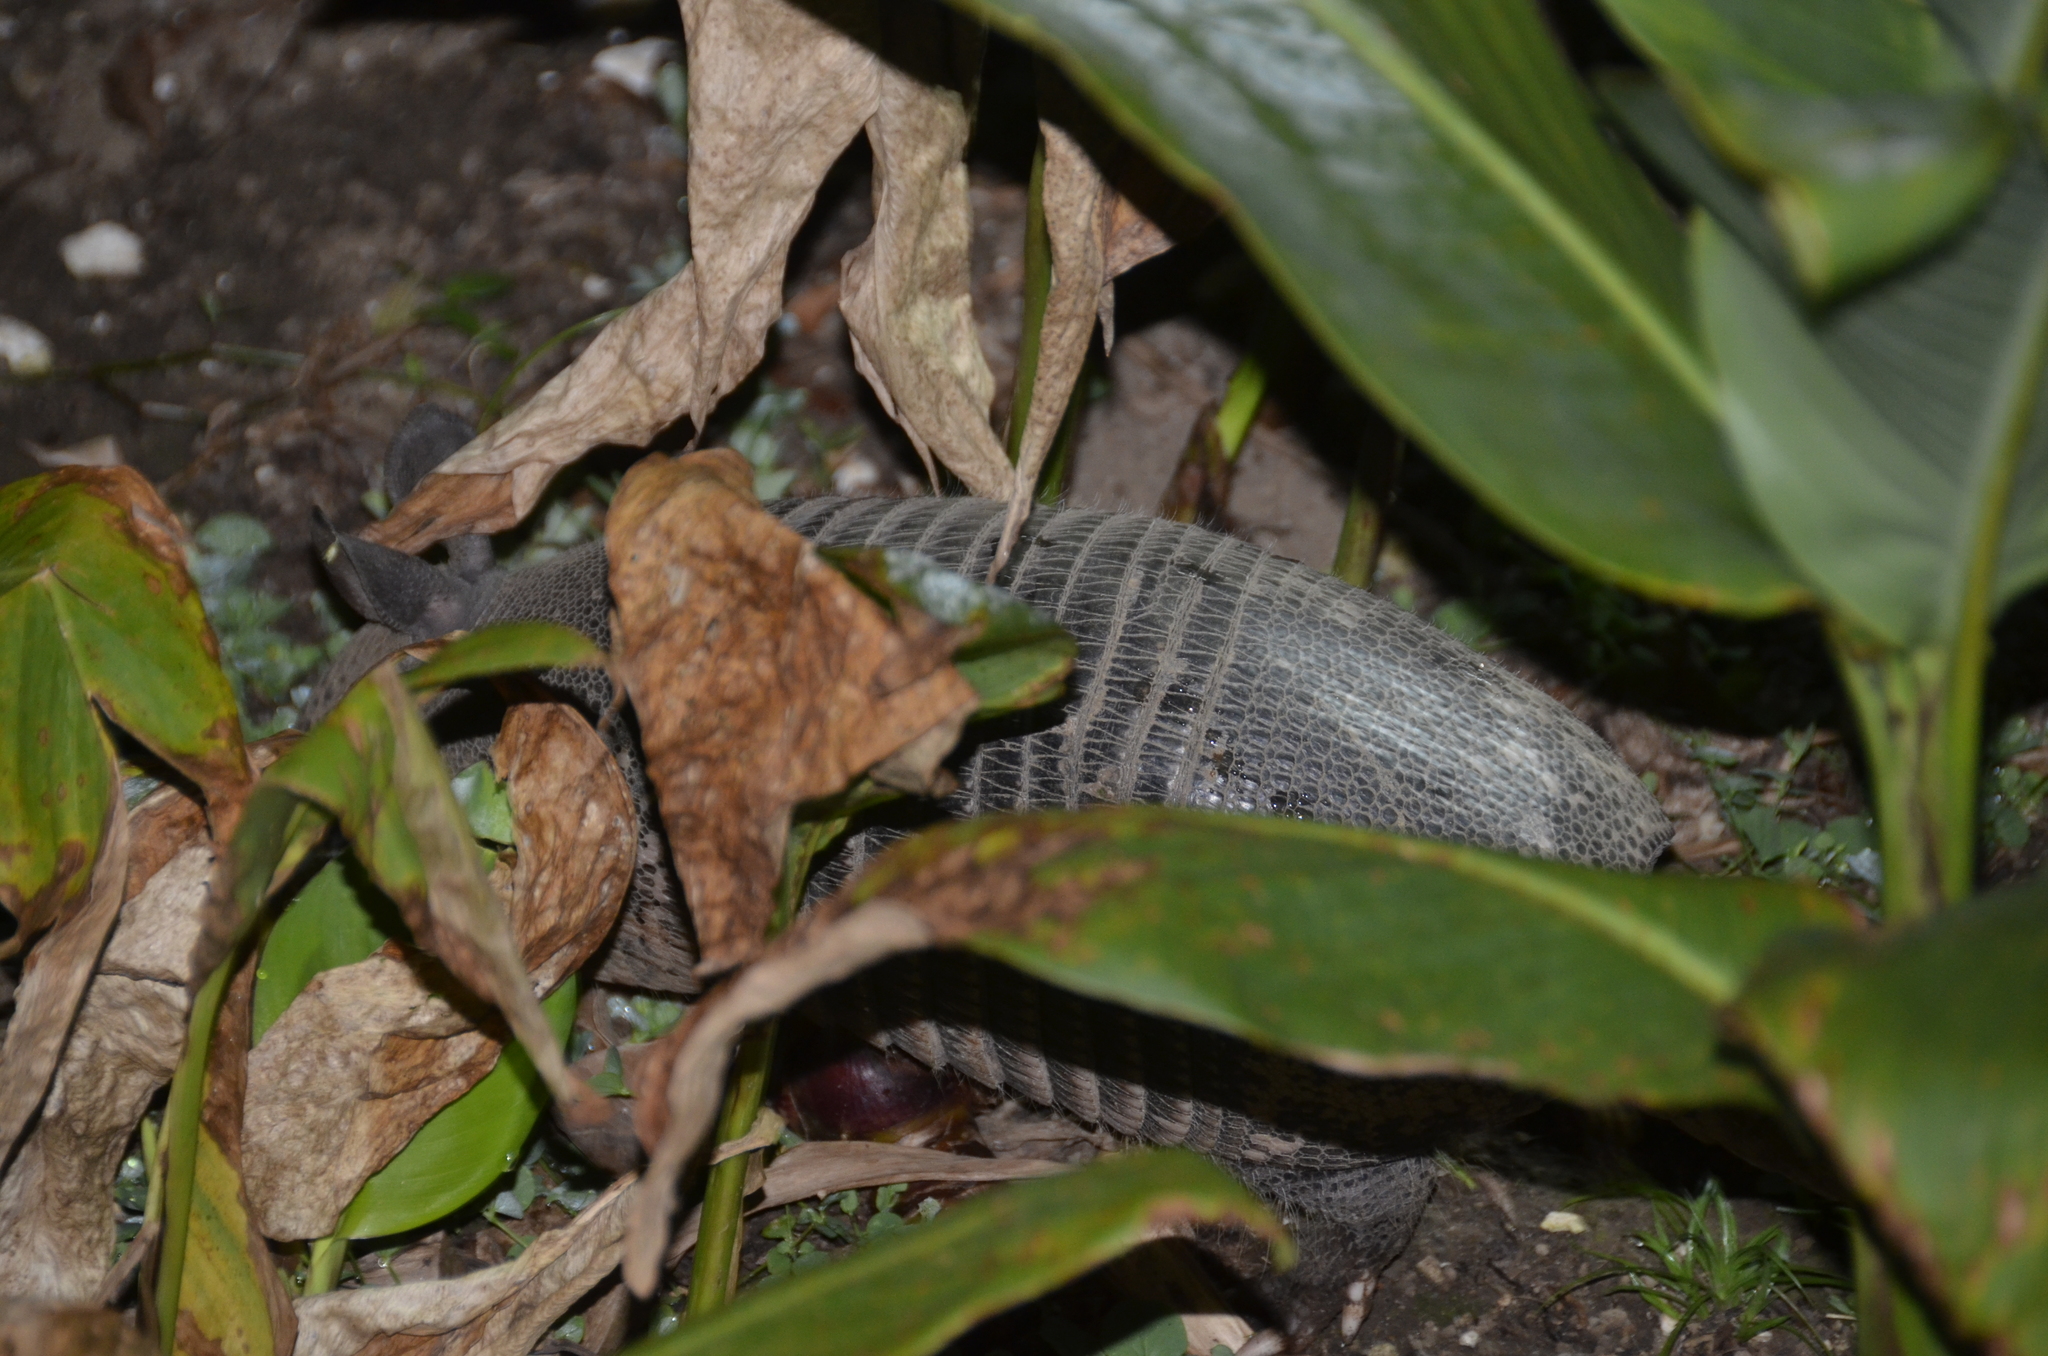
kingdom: Animalia
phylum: Chordata
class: Mammalia
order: Cingulata
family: Dasypodidae
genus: Dasypus
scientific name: Dasypus novemcinctus
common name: Nine-banded armadillo
